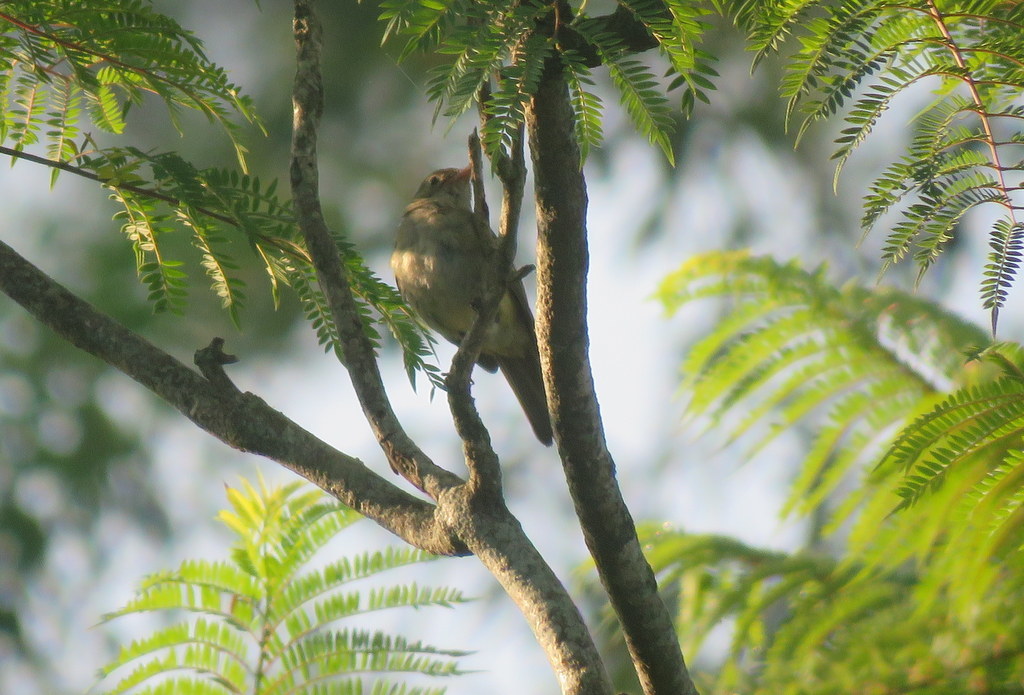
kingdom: Animalia
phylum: Chordata
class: Aves
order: Passeriformes
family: Tyrannidae
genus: Elaenia
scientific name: Elaenia parvirostris
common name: Small-billed elaenia
